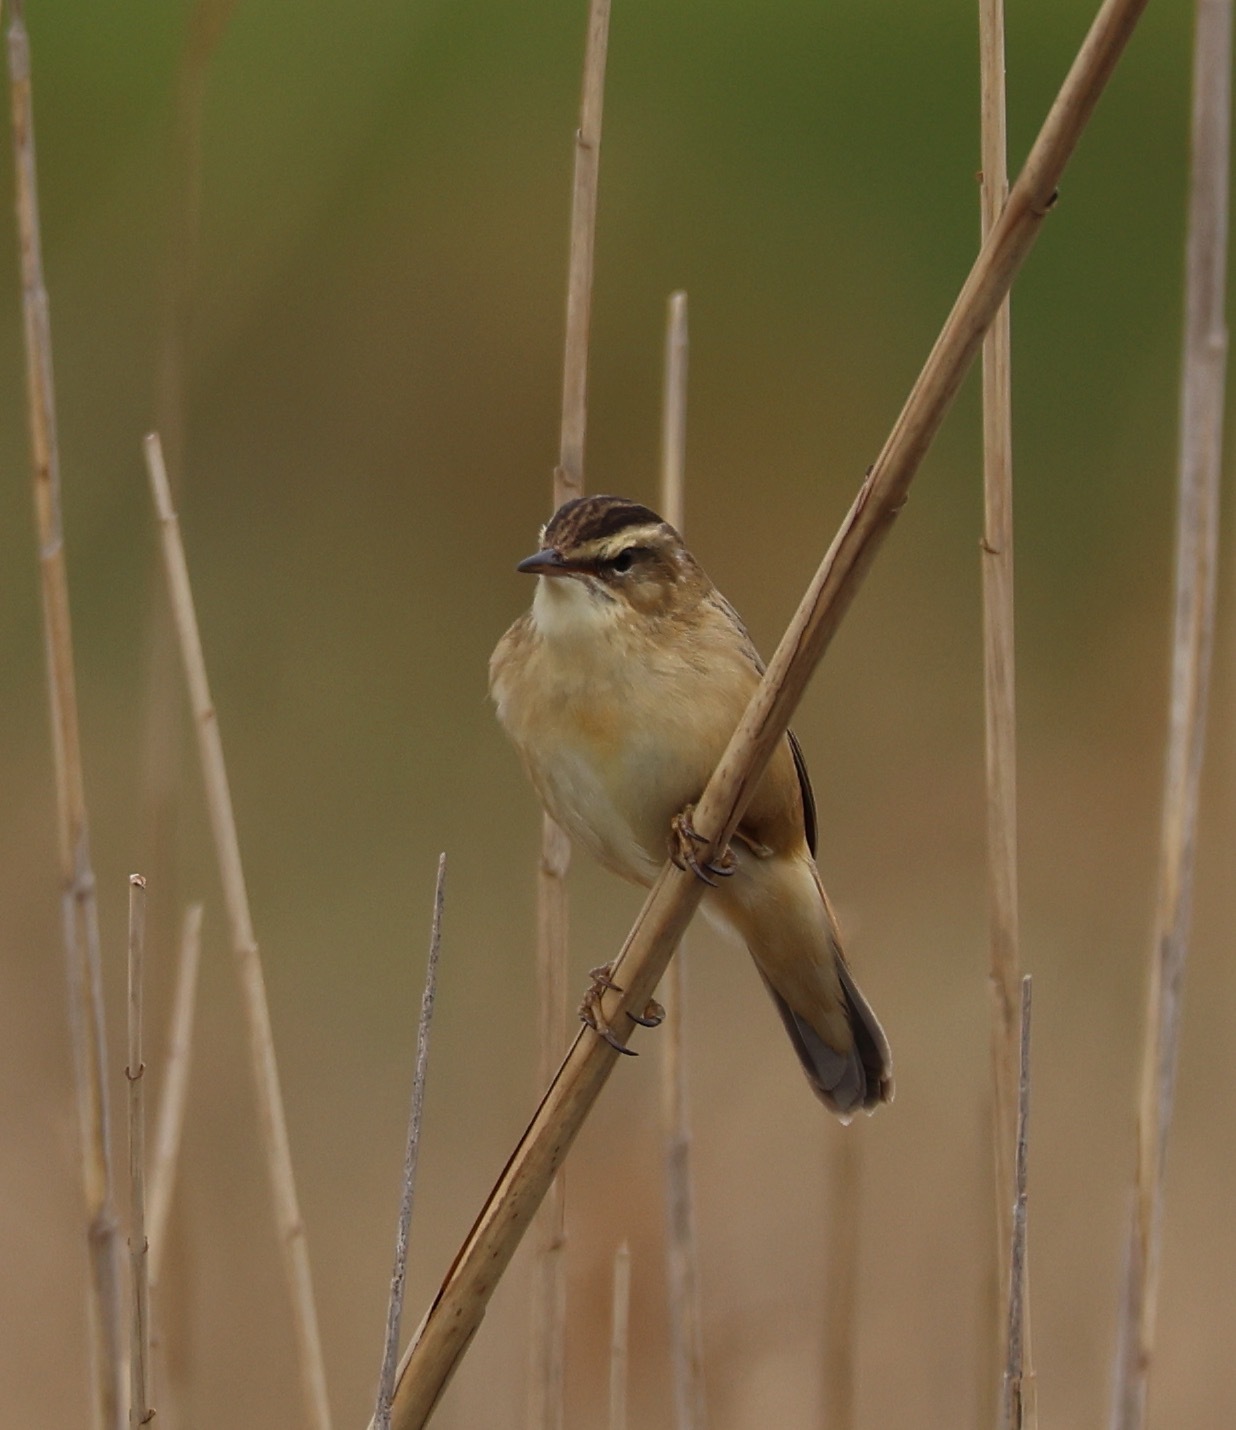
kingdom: Animalia
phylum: Chordata
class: Aves
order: Passeriformes
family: Acrocephalidae
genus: Acrocephalus
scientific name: Acrocephalus schoenobaenus
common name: Sedge warbler
